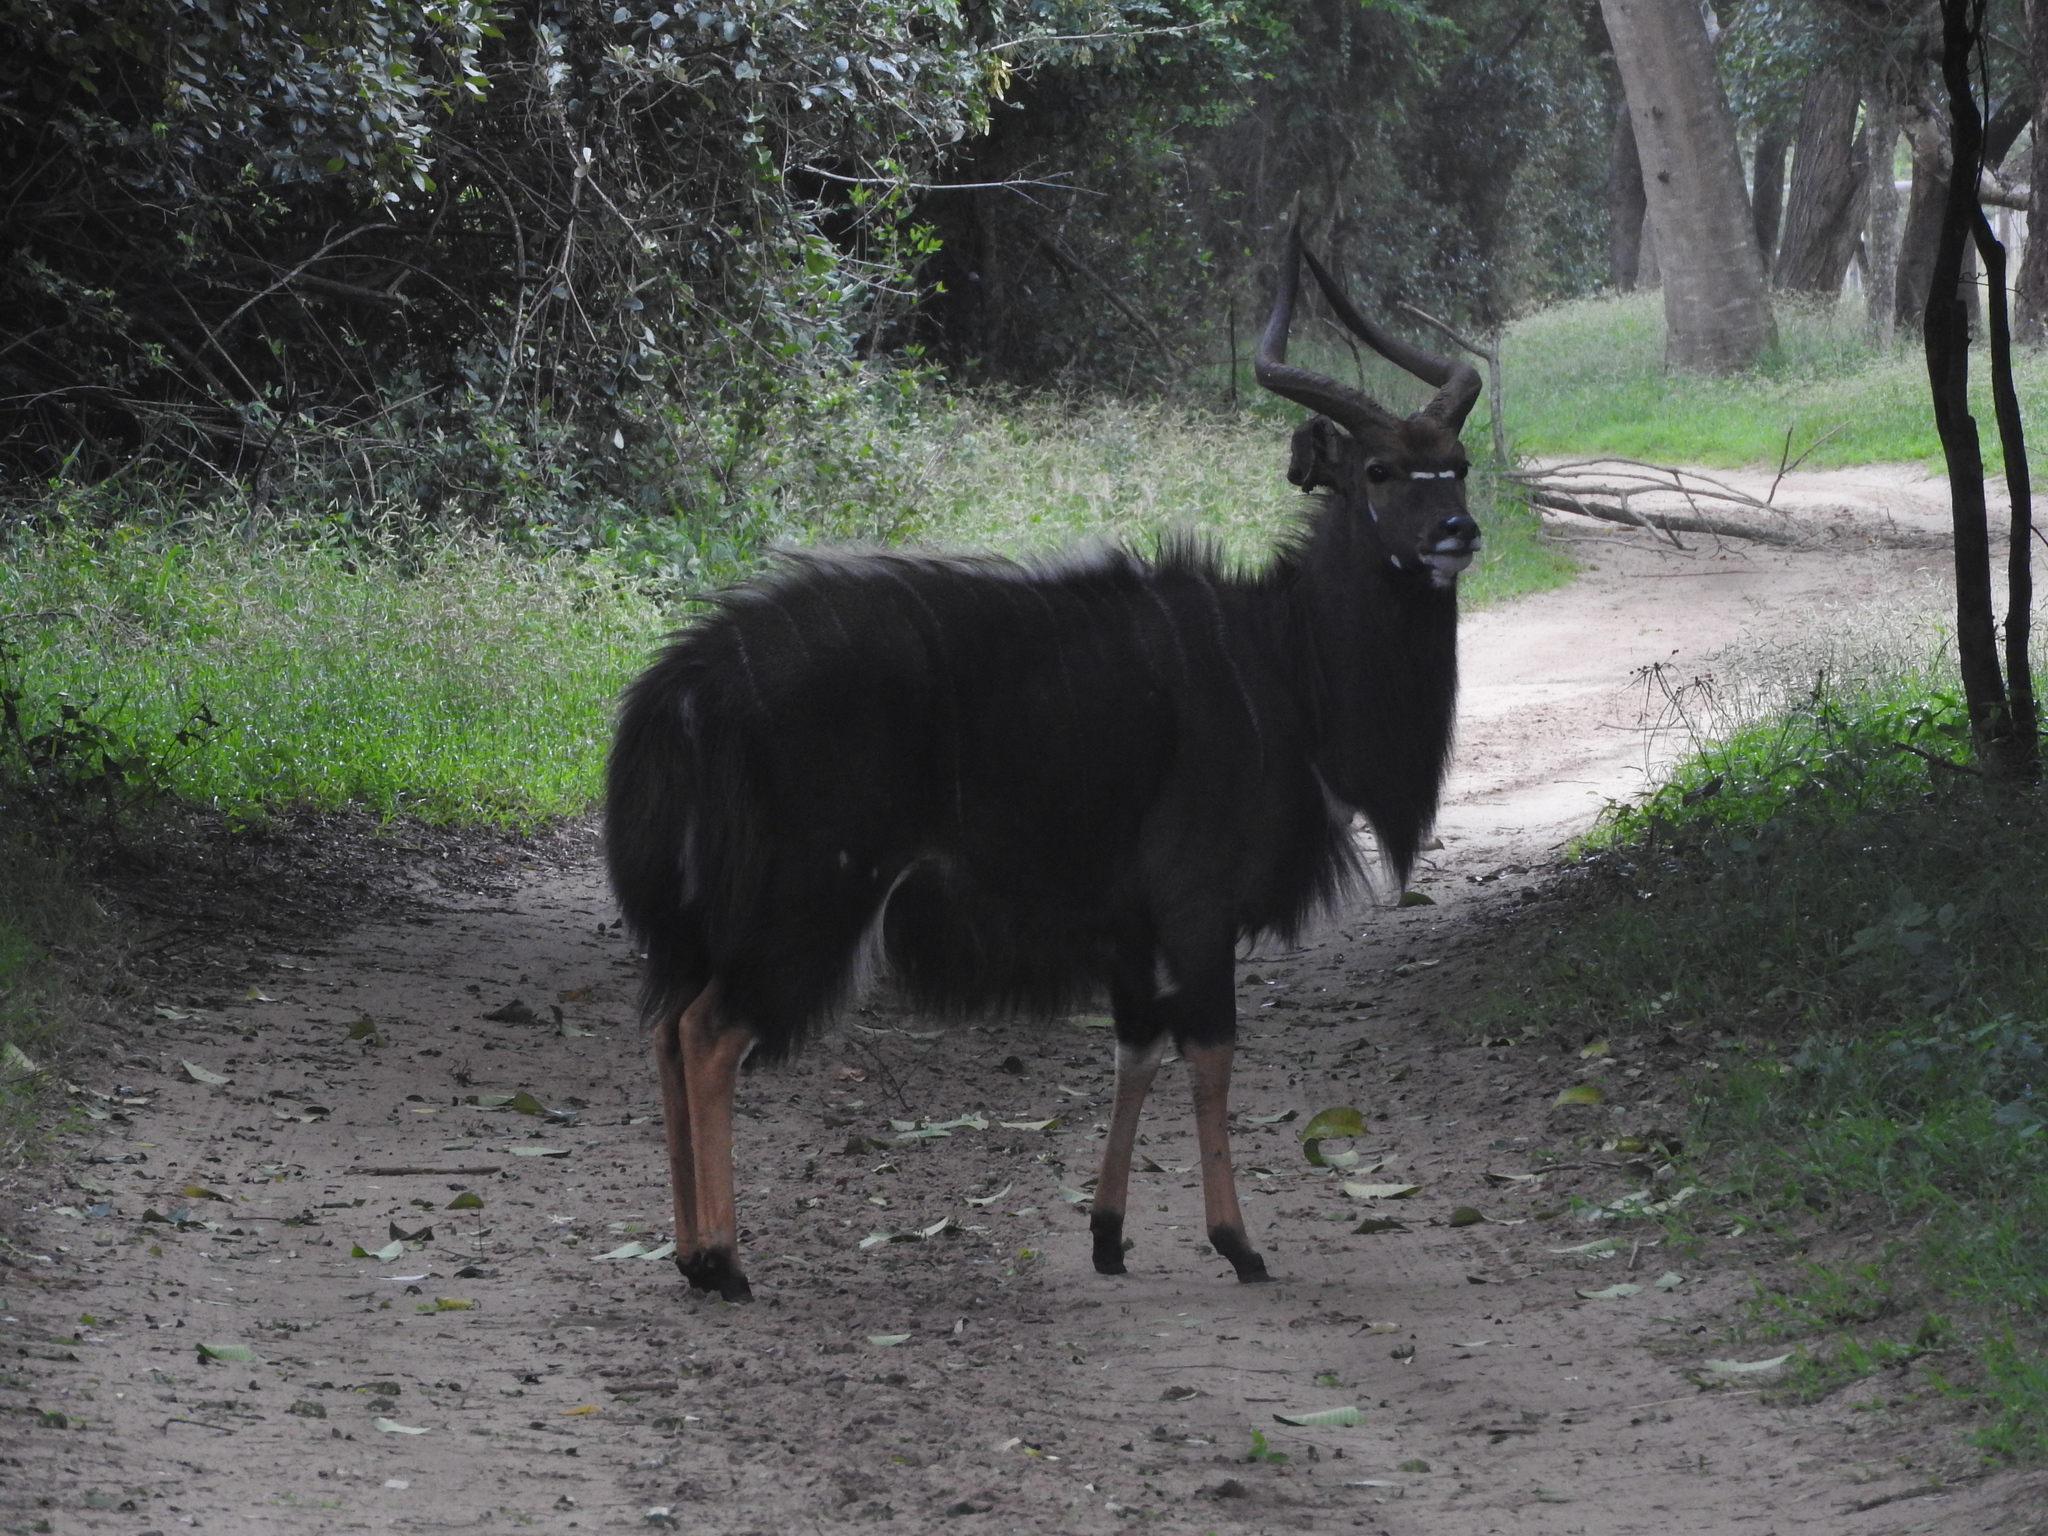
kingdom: Animalia
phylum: Chordata
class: Mammalia
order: Artiodactyla
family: Bovidae
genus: Tragelaphus
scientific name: Tragelaphus angasii
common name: Nyala
